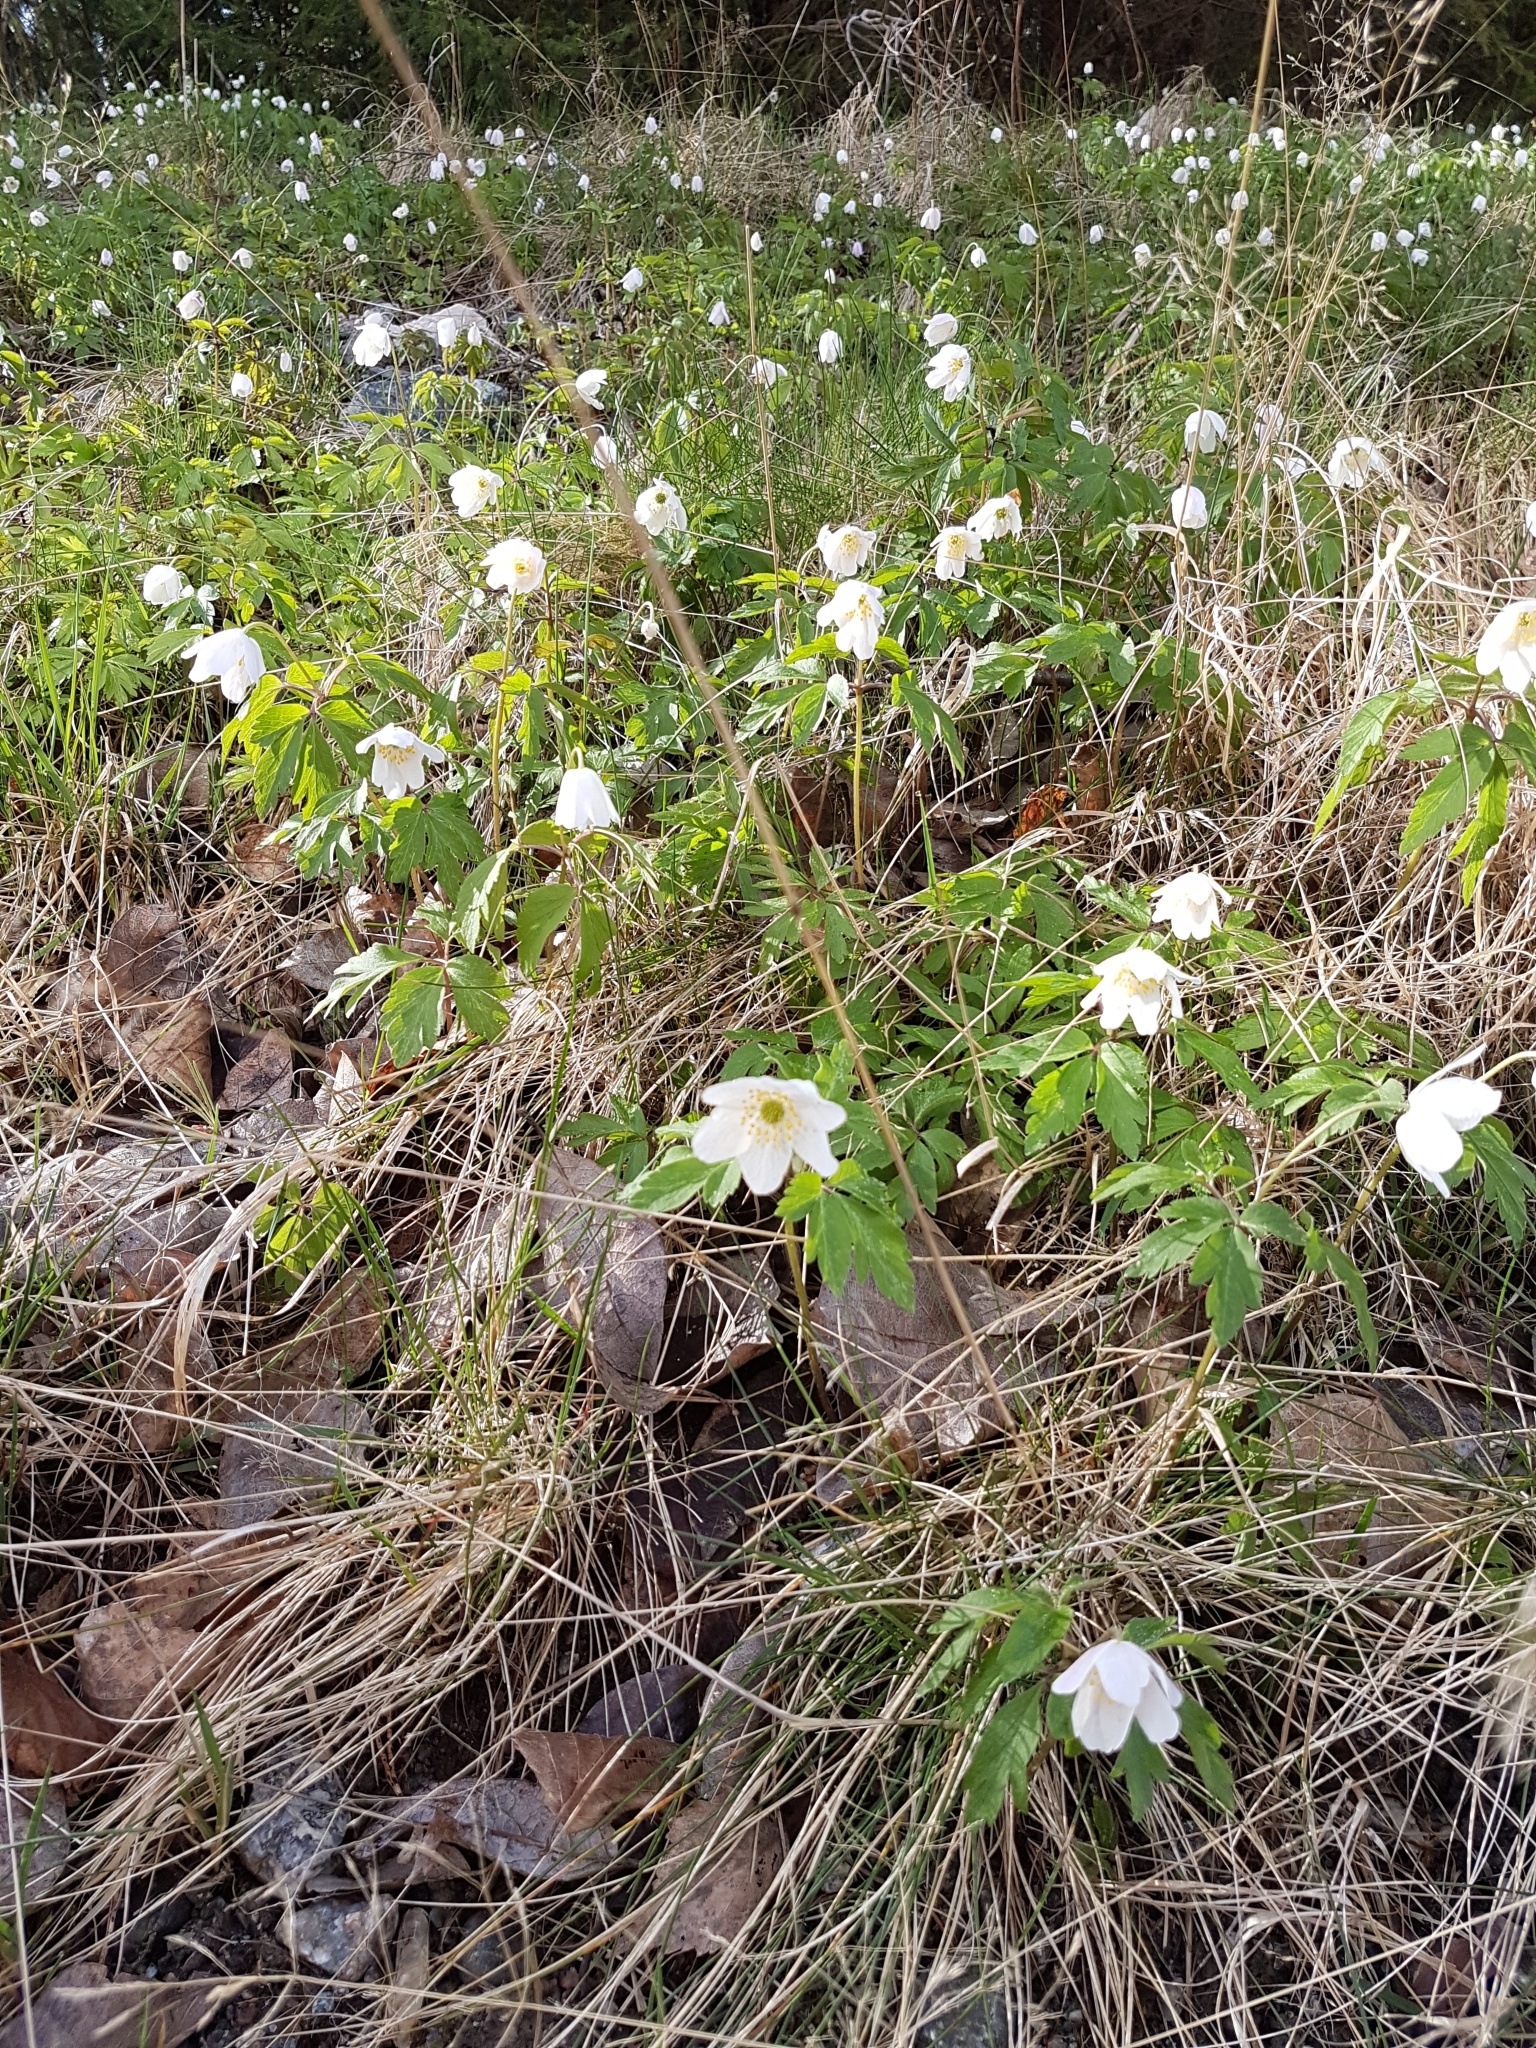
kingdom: Plantae
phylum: Tracheophyta
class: Magnoliopsida
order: Ranunculales
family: Ranunculaceae
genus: Anemone
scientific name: Anemone nemorosa
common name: Wood anemone
